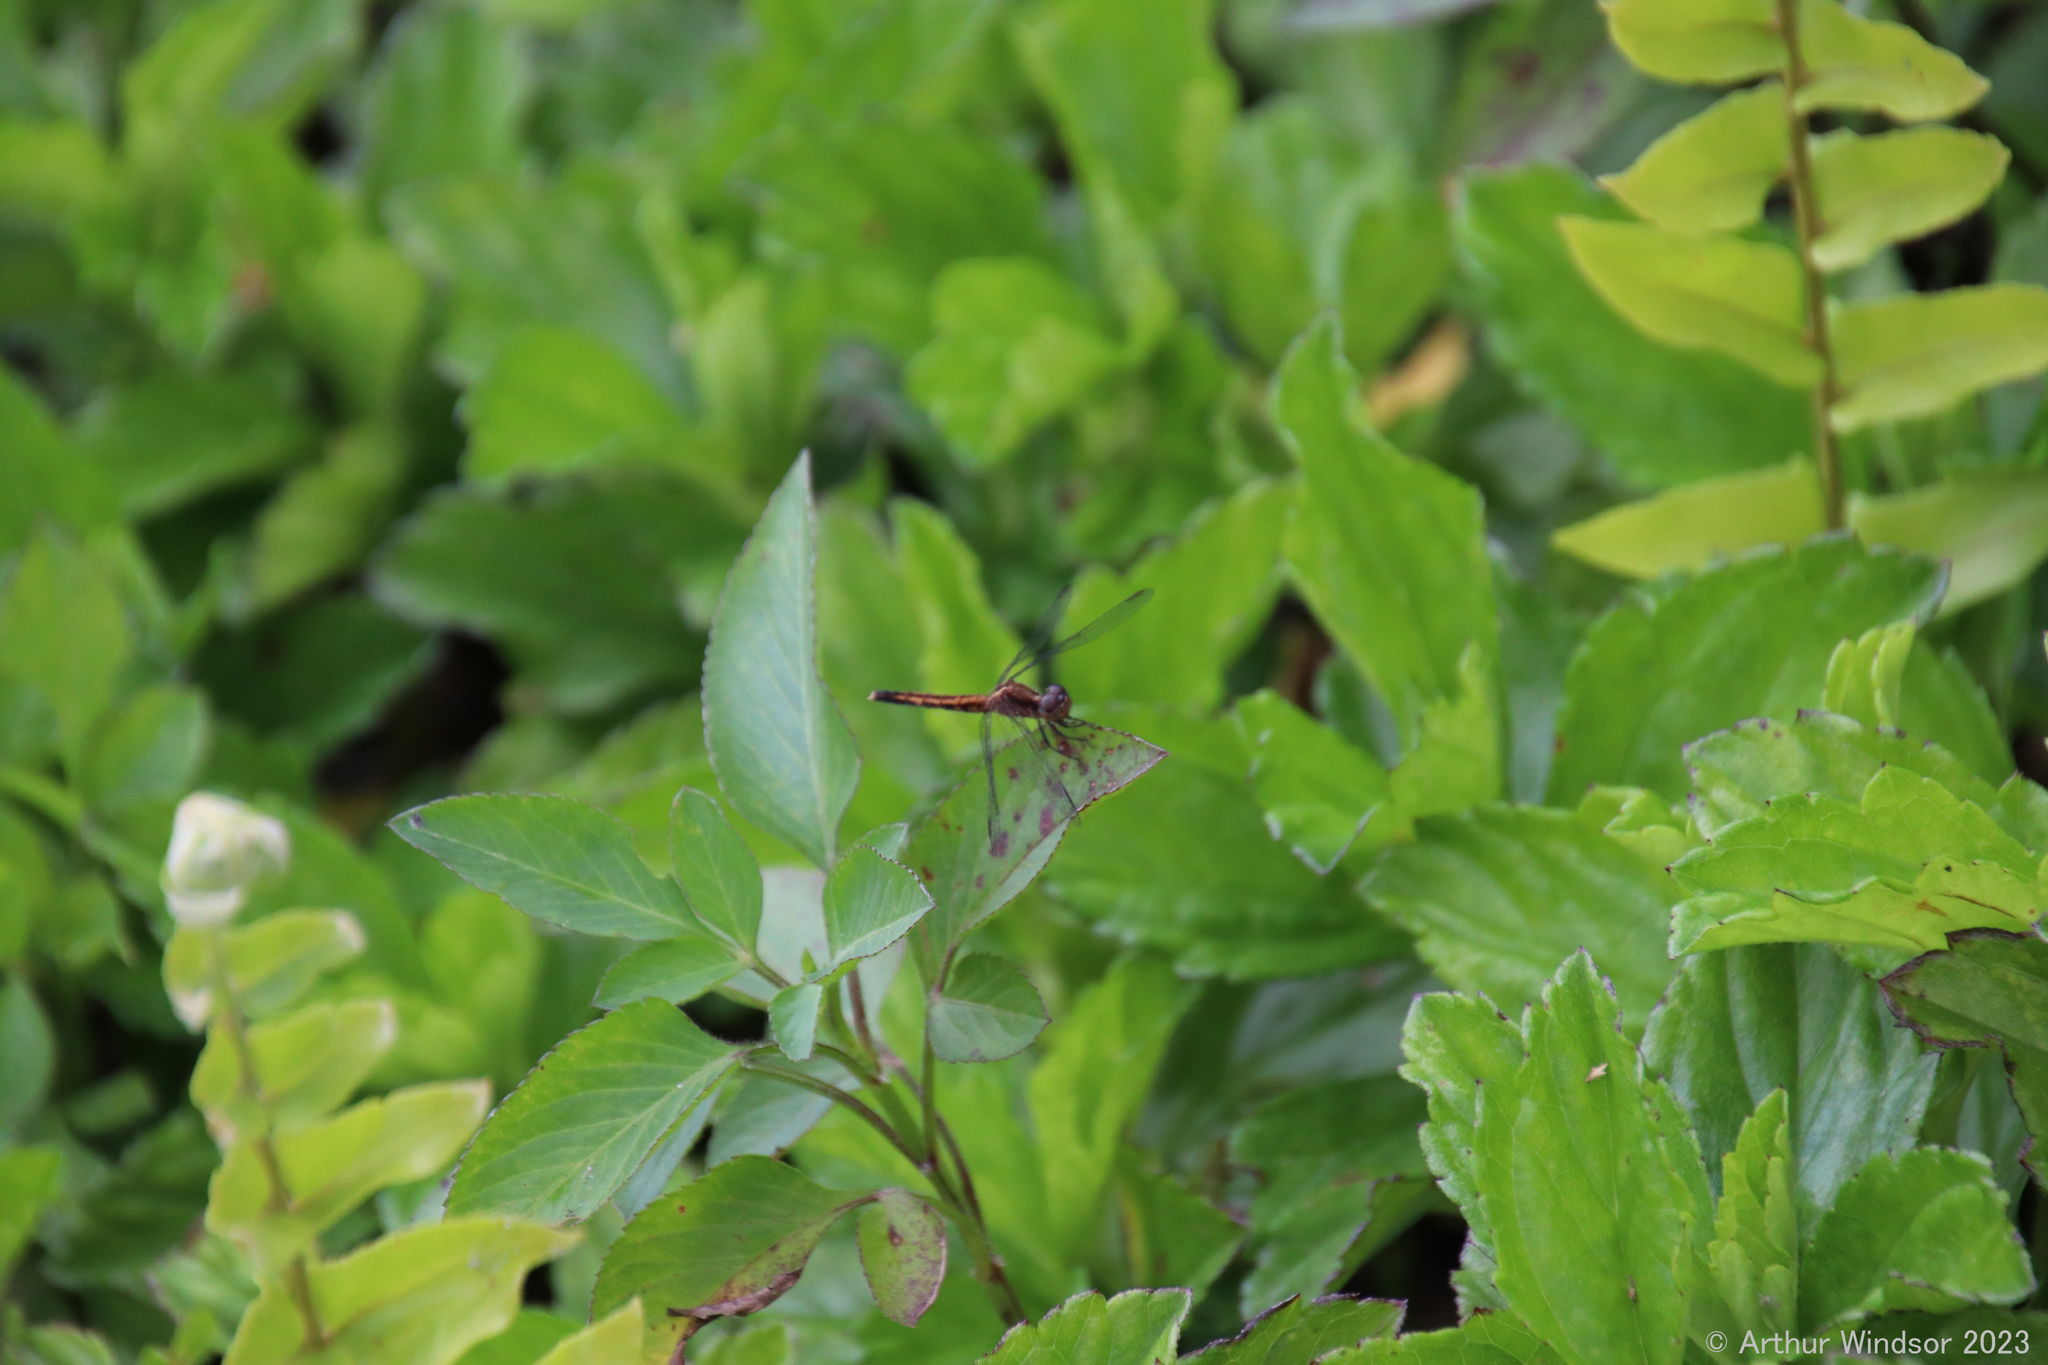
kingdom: Animalia
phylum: Arthropoda
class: Insecta
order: Odonata
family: Libellulidae
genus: Erythrodiplax
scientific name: Erythrodiplax minuscula
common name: Little blue dragonlet
